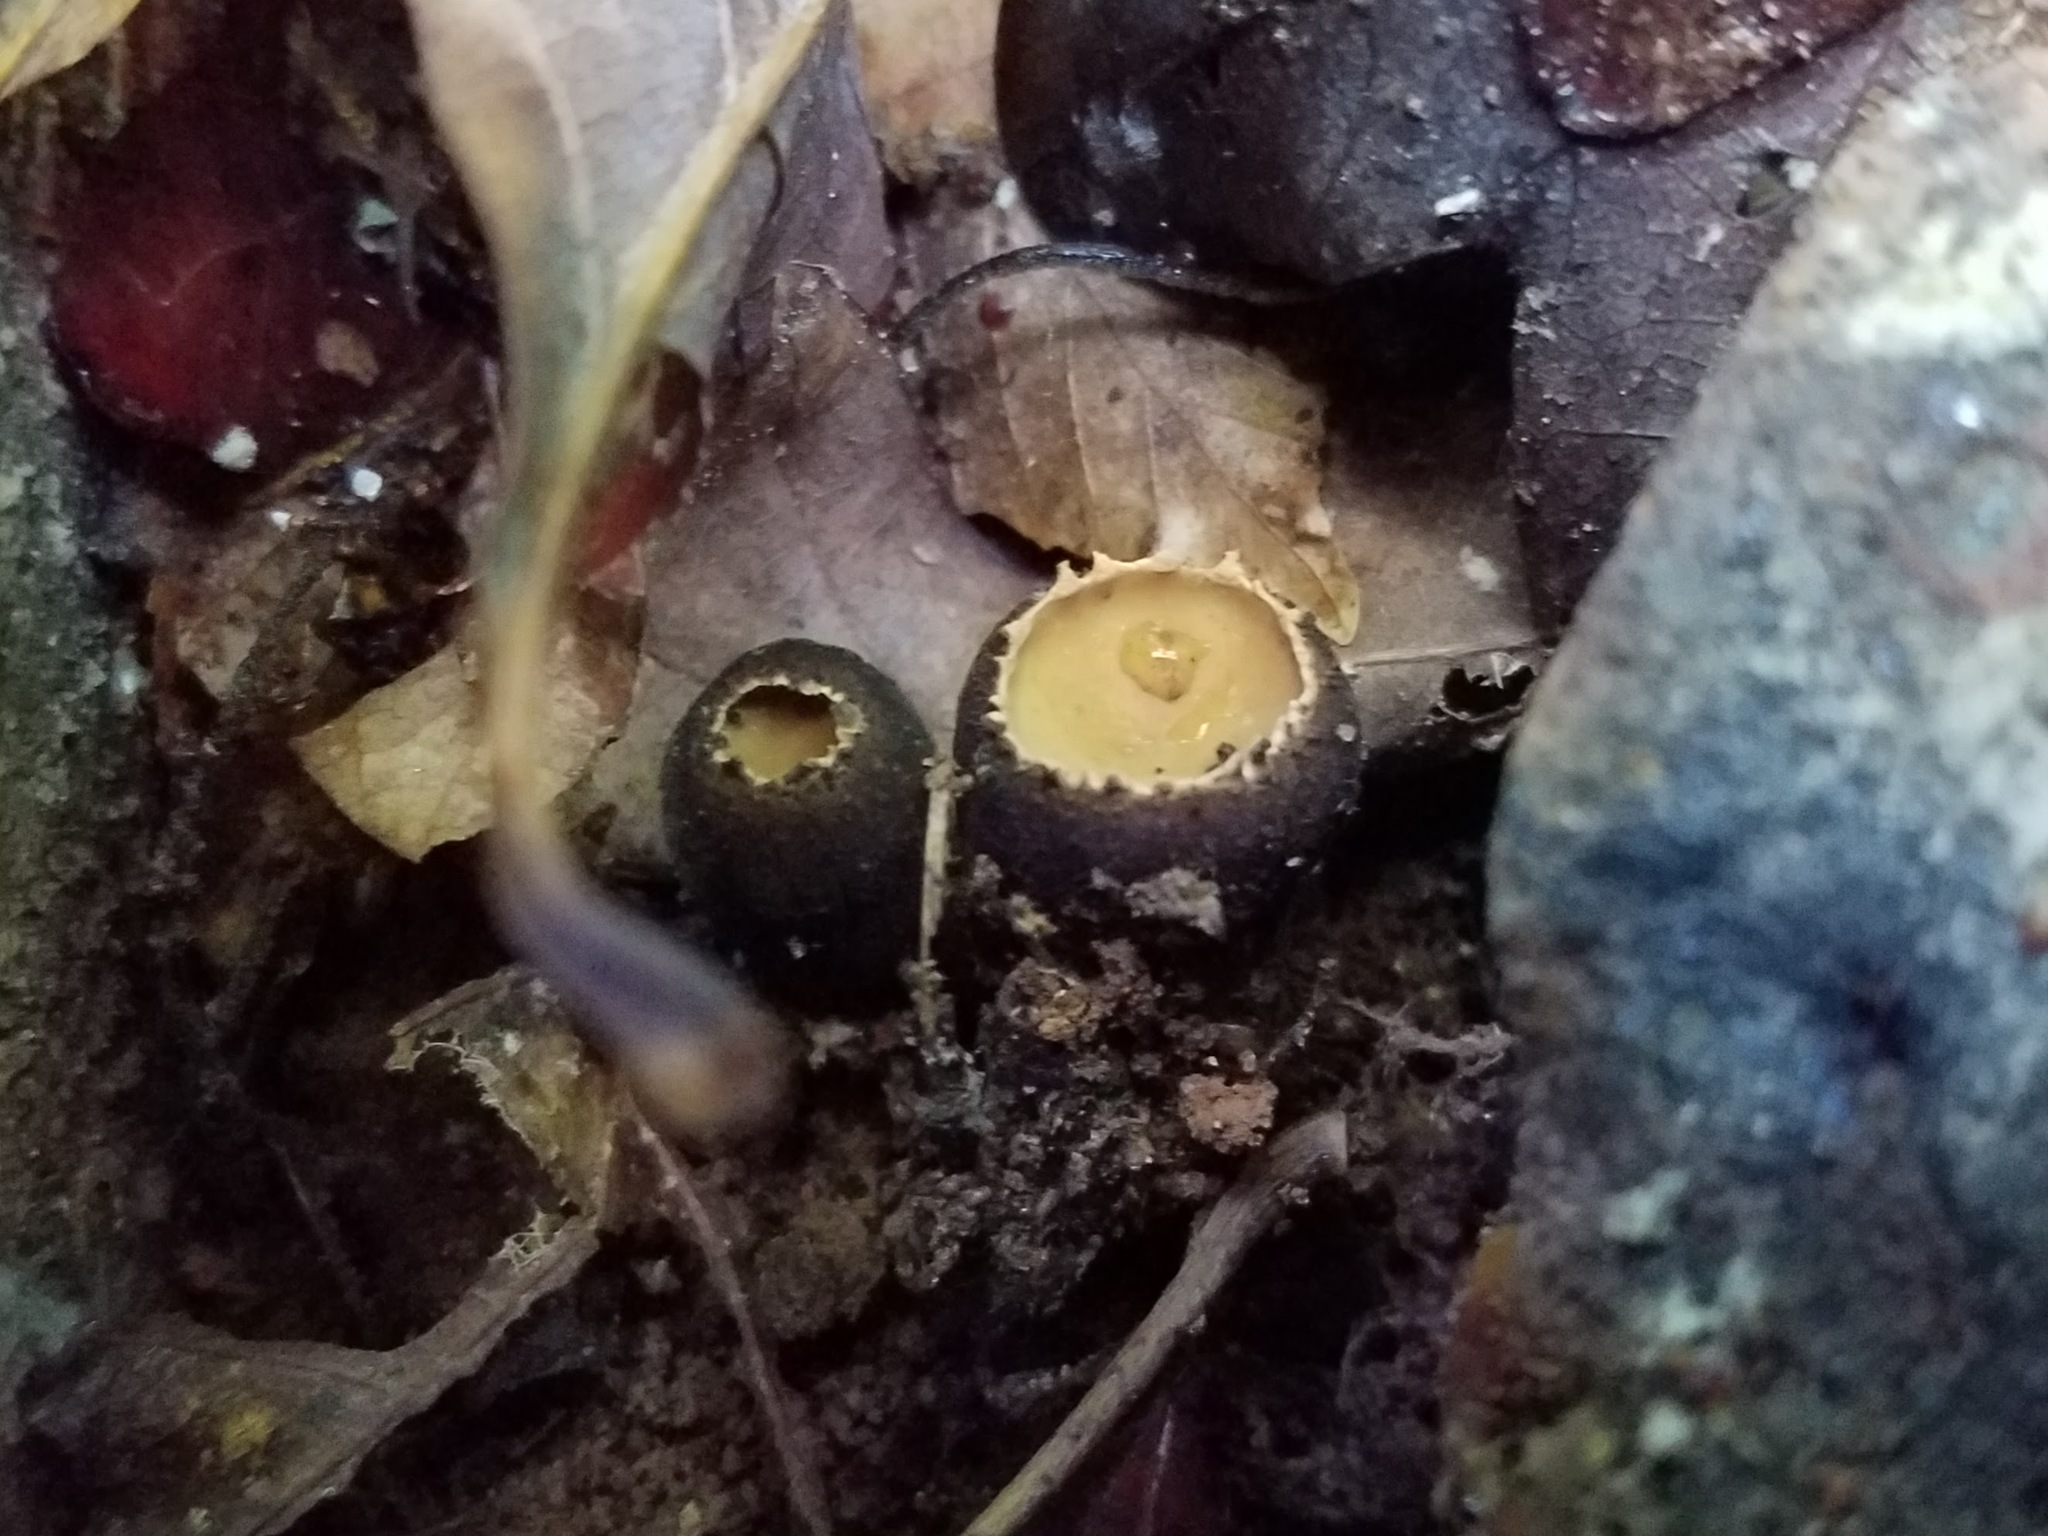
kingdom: Fungi
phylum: Ascomycota
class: Pezizomycetes
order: Pezizales
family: Sarcosomataceae
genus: Galiella
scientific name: Galiella rufa
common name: Hairy rubber cup
